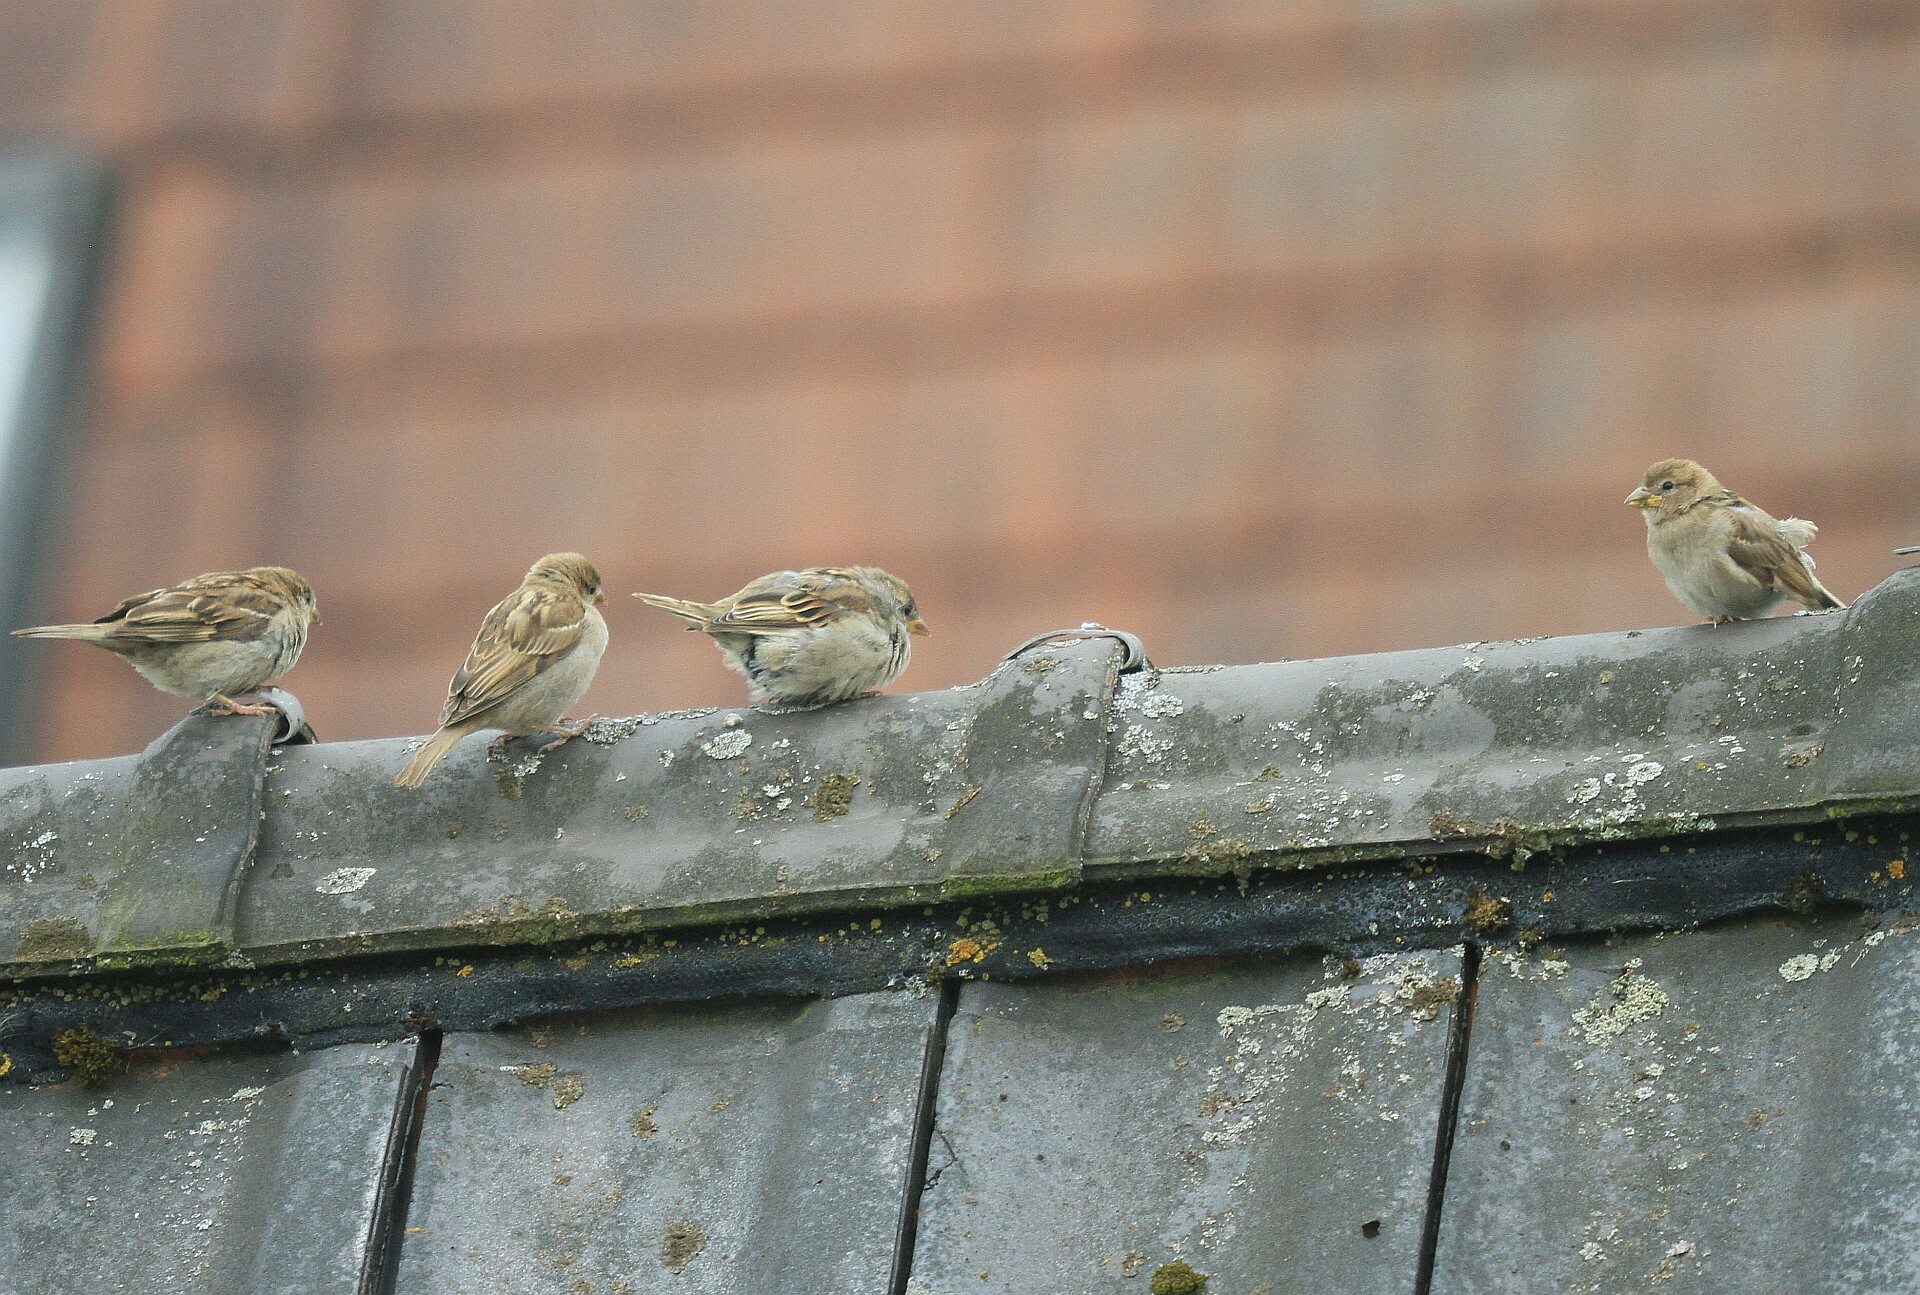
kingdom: Animalia
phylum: Chordata
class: Aves
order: Passeriformes
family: Passeridae
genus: Passer
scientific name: Passer domesticus
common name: House sparrow
